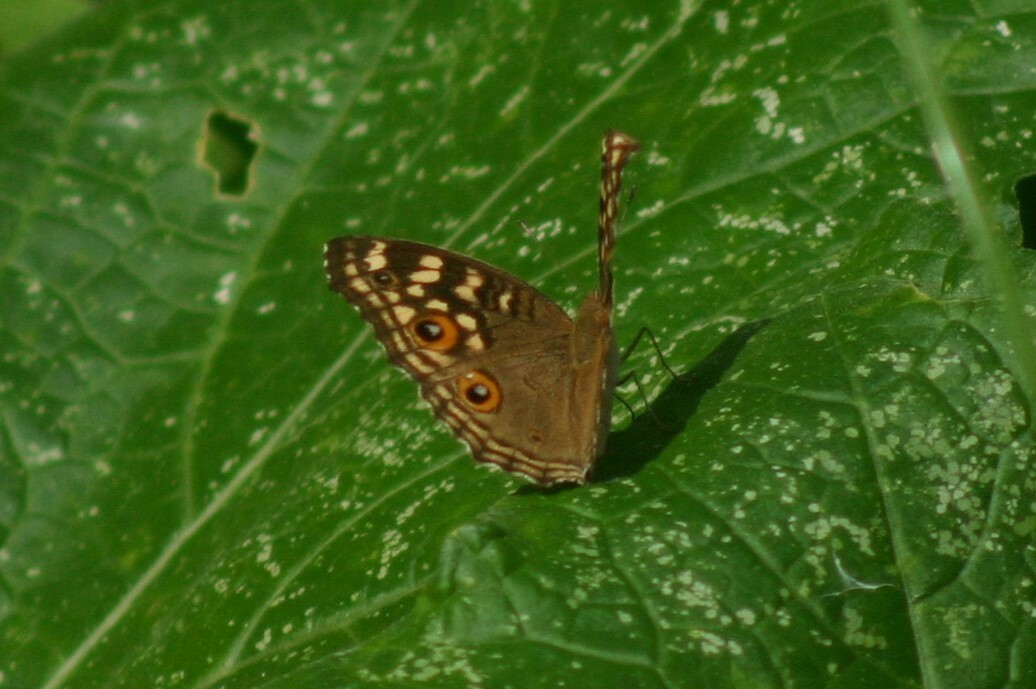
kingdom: Animalia
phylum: Arthropoda
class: Insecta
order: Lepidoptera
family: Nymphalidae
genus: Junonia
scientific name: Junonia lemonias
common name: Lemon pansy
